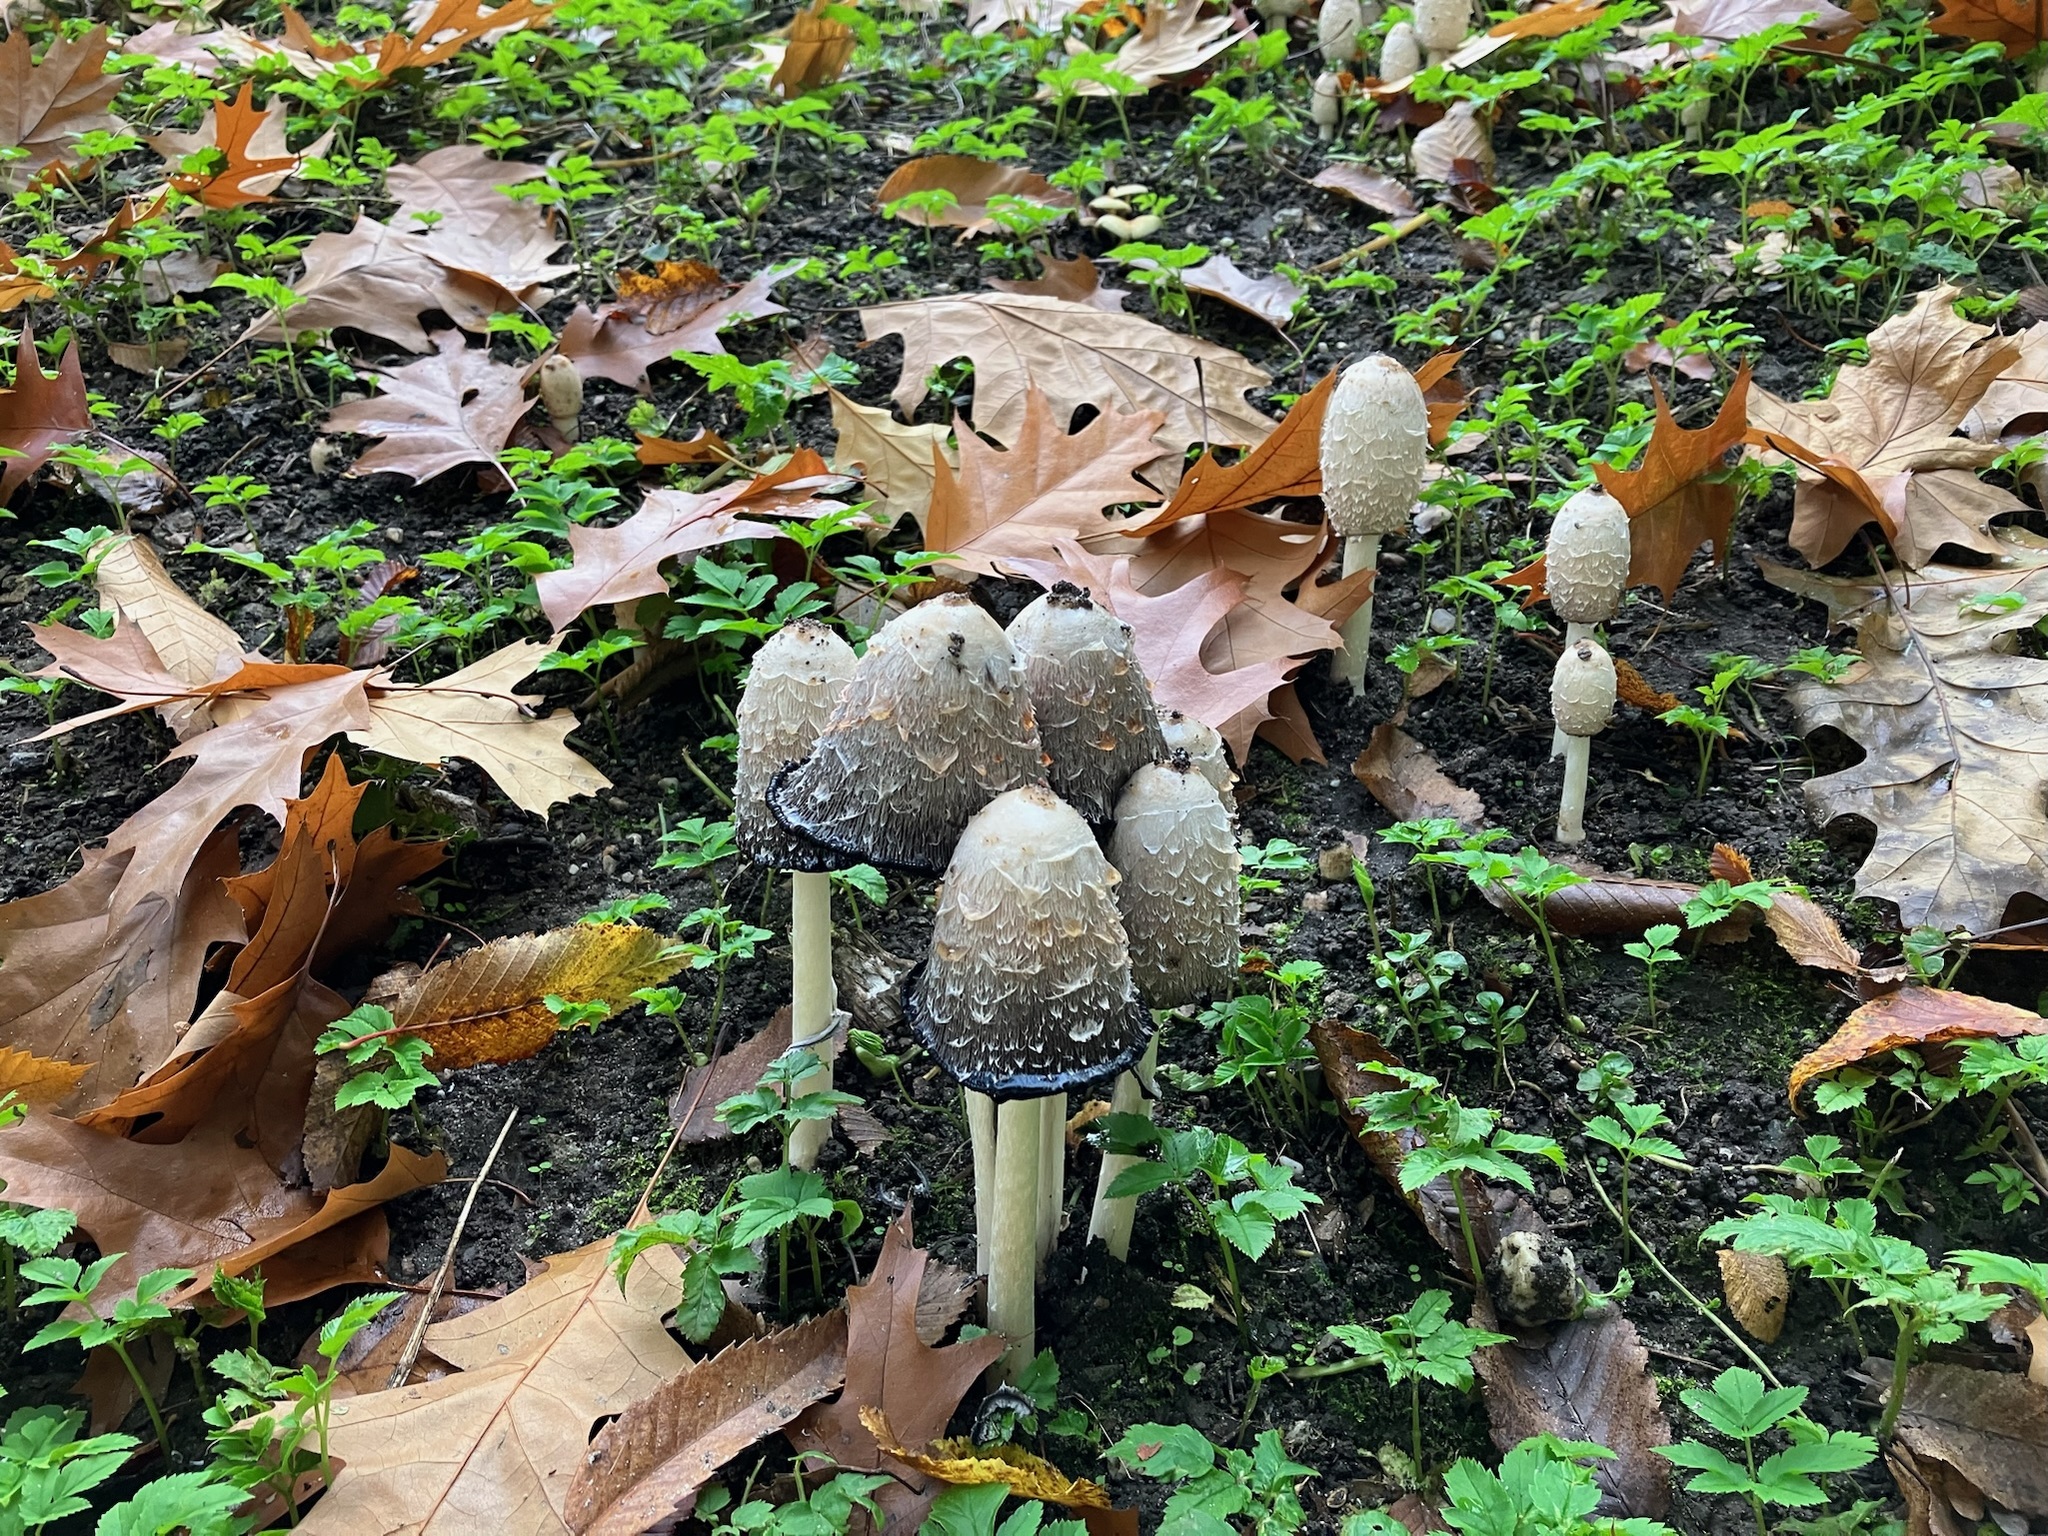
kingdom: Fungi
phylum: Basidiomycota
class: Agaricomycetes
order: Agaricales
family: Agaricaceae
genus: Coprinus
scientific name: Coprinus comatus
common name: Lawyer's wig
